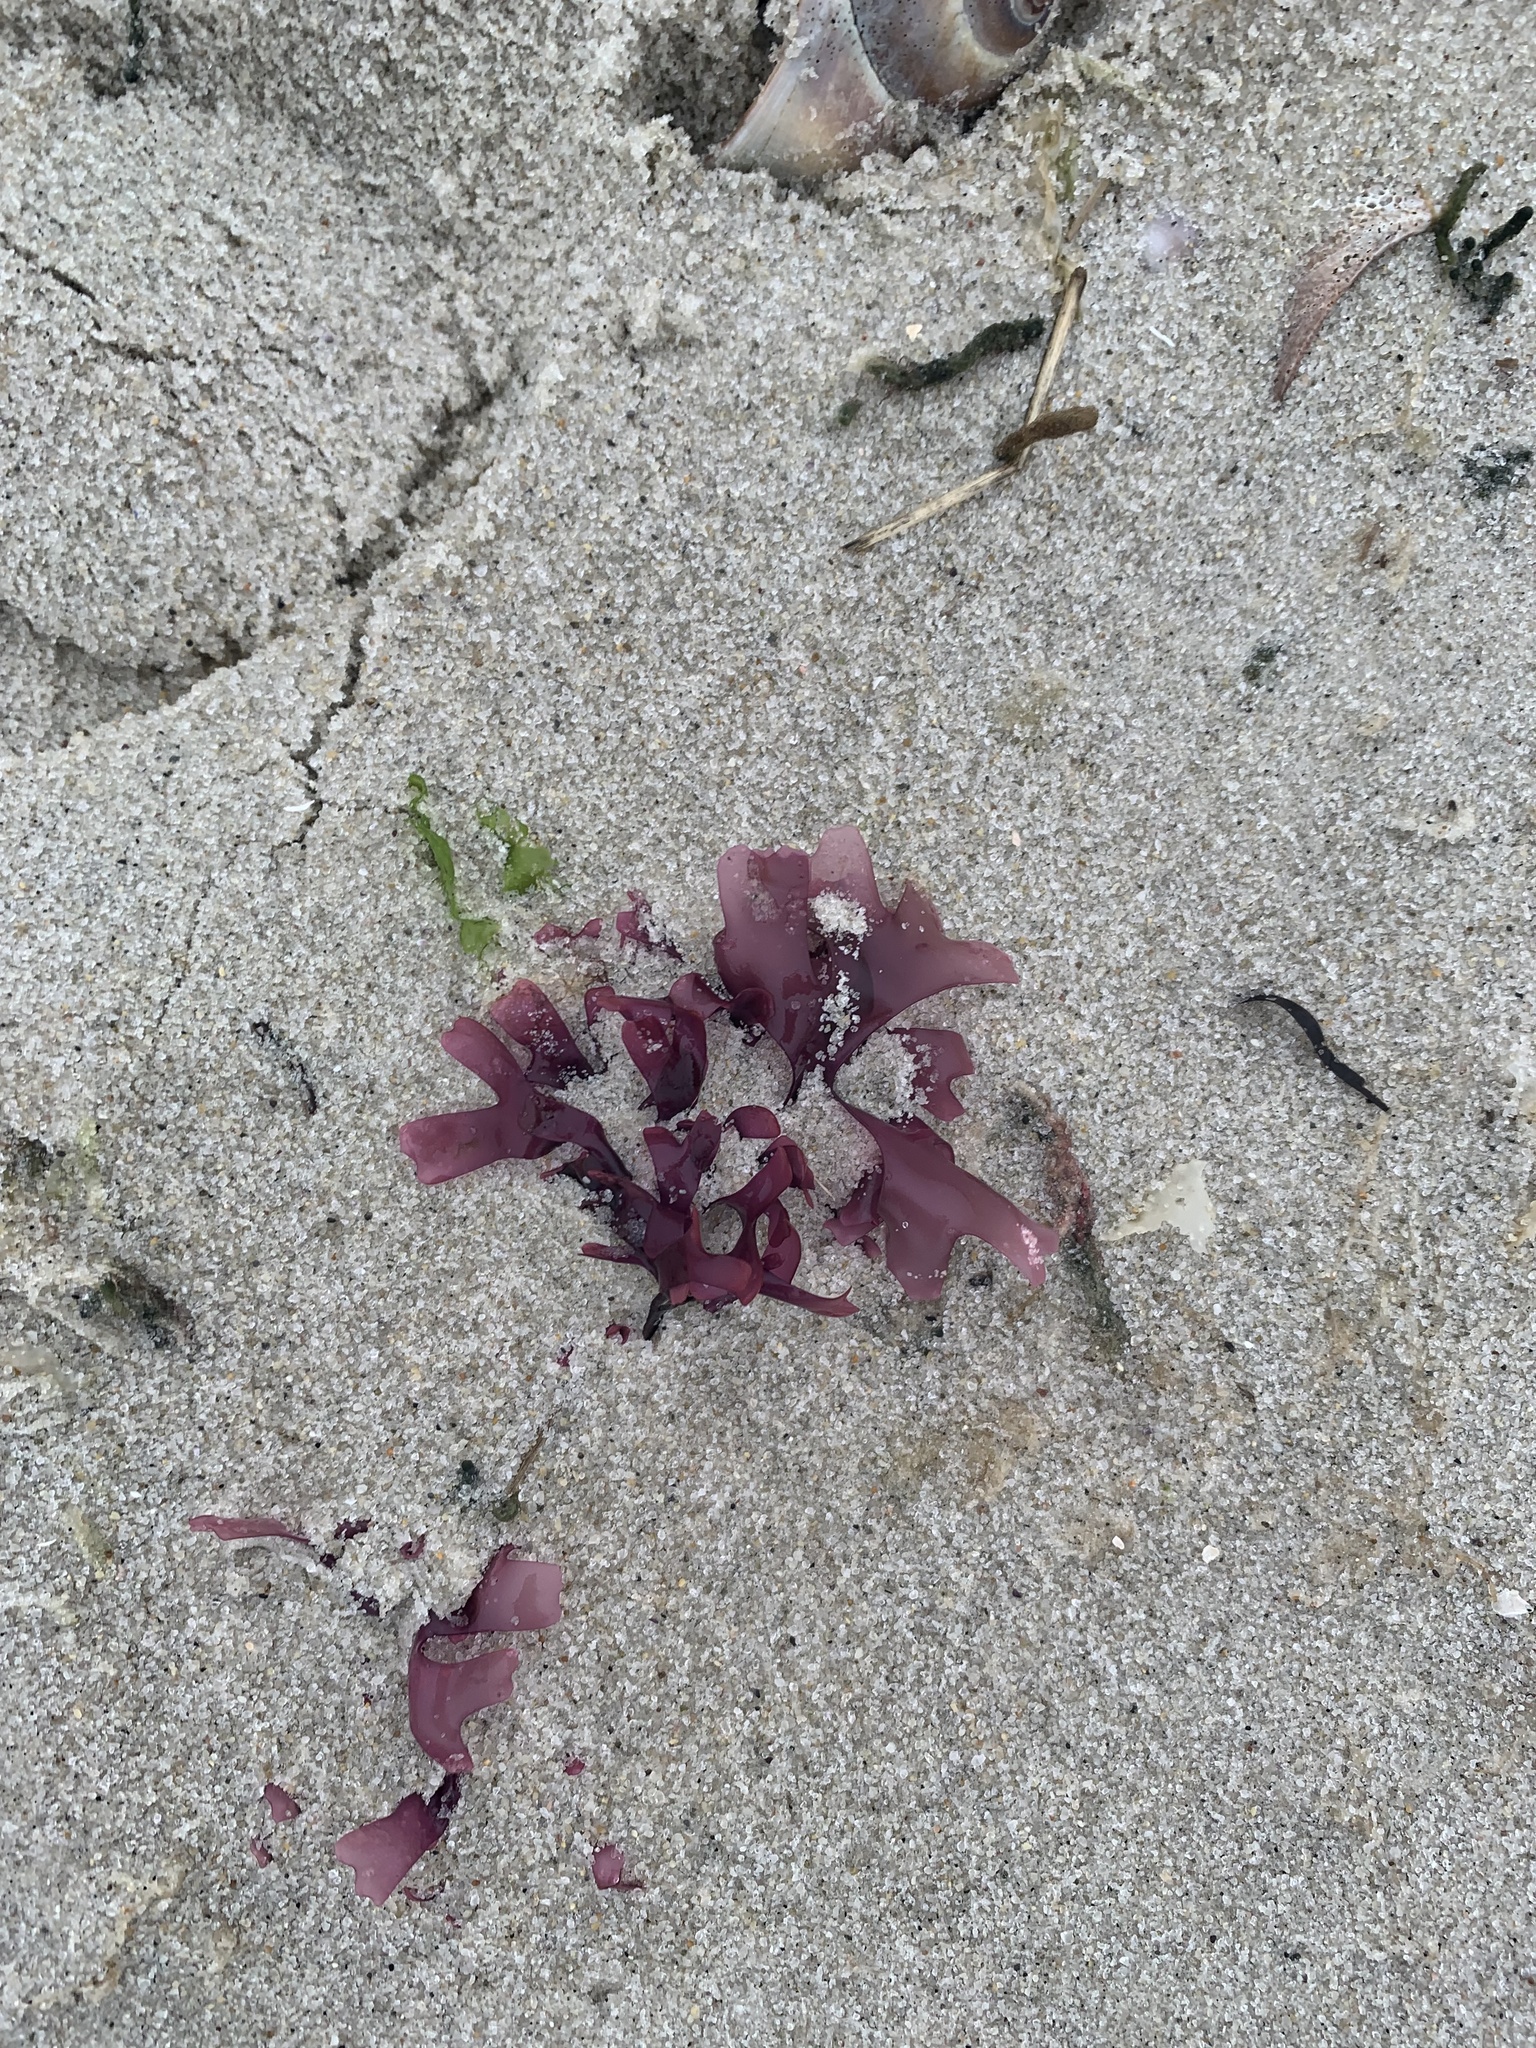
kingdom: Plantae
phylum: Rhodophyta
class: Florideophyceae
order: Gigartinales
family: Gigartinaceae
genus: Chondrus
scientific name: Chondrus crispus
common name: Carrageen
